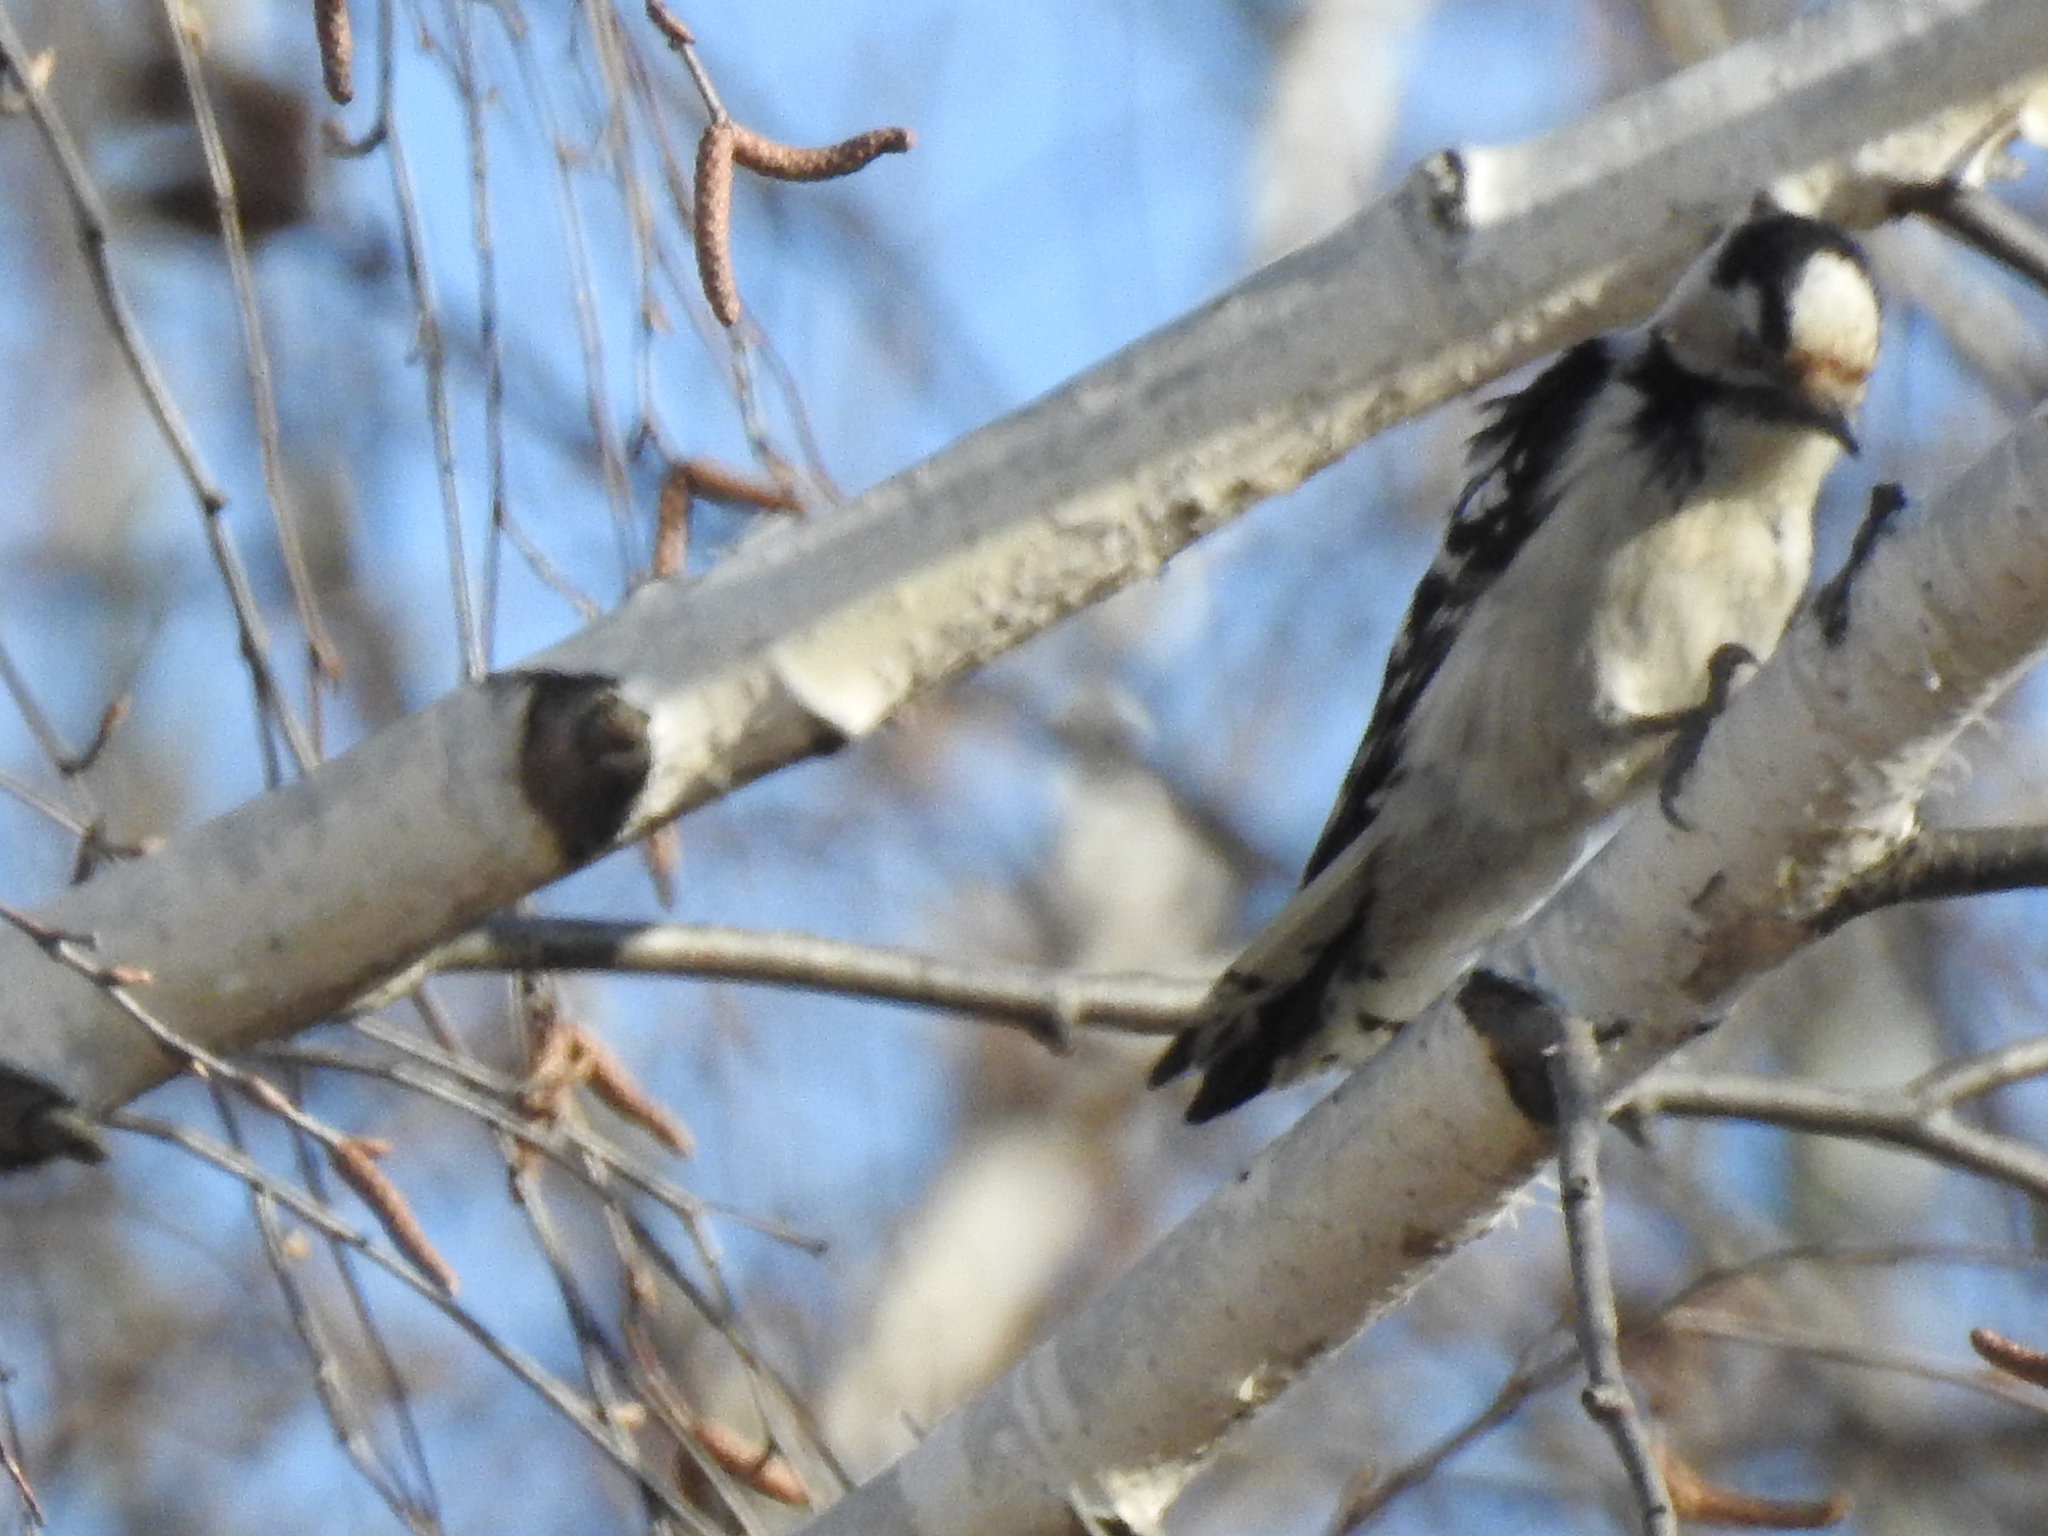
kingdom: Animalia
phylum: Chordata
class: Aves
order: Piciformes
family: Picidae
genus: Dryobates
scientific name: Dryobates minor
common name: Lesser spotted woodpecker
